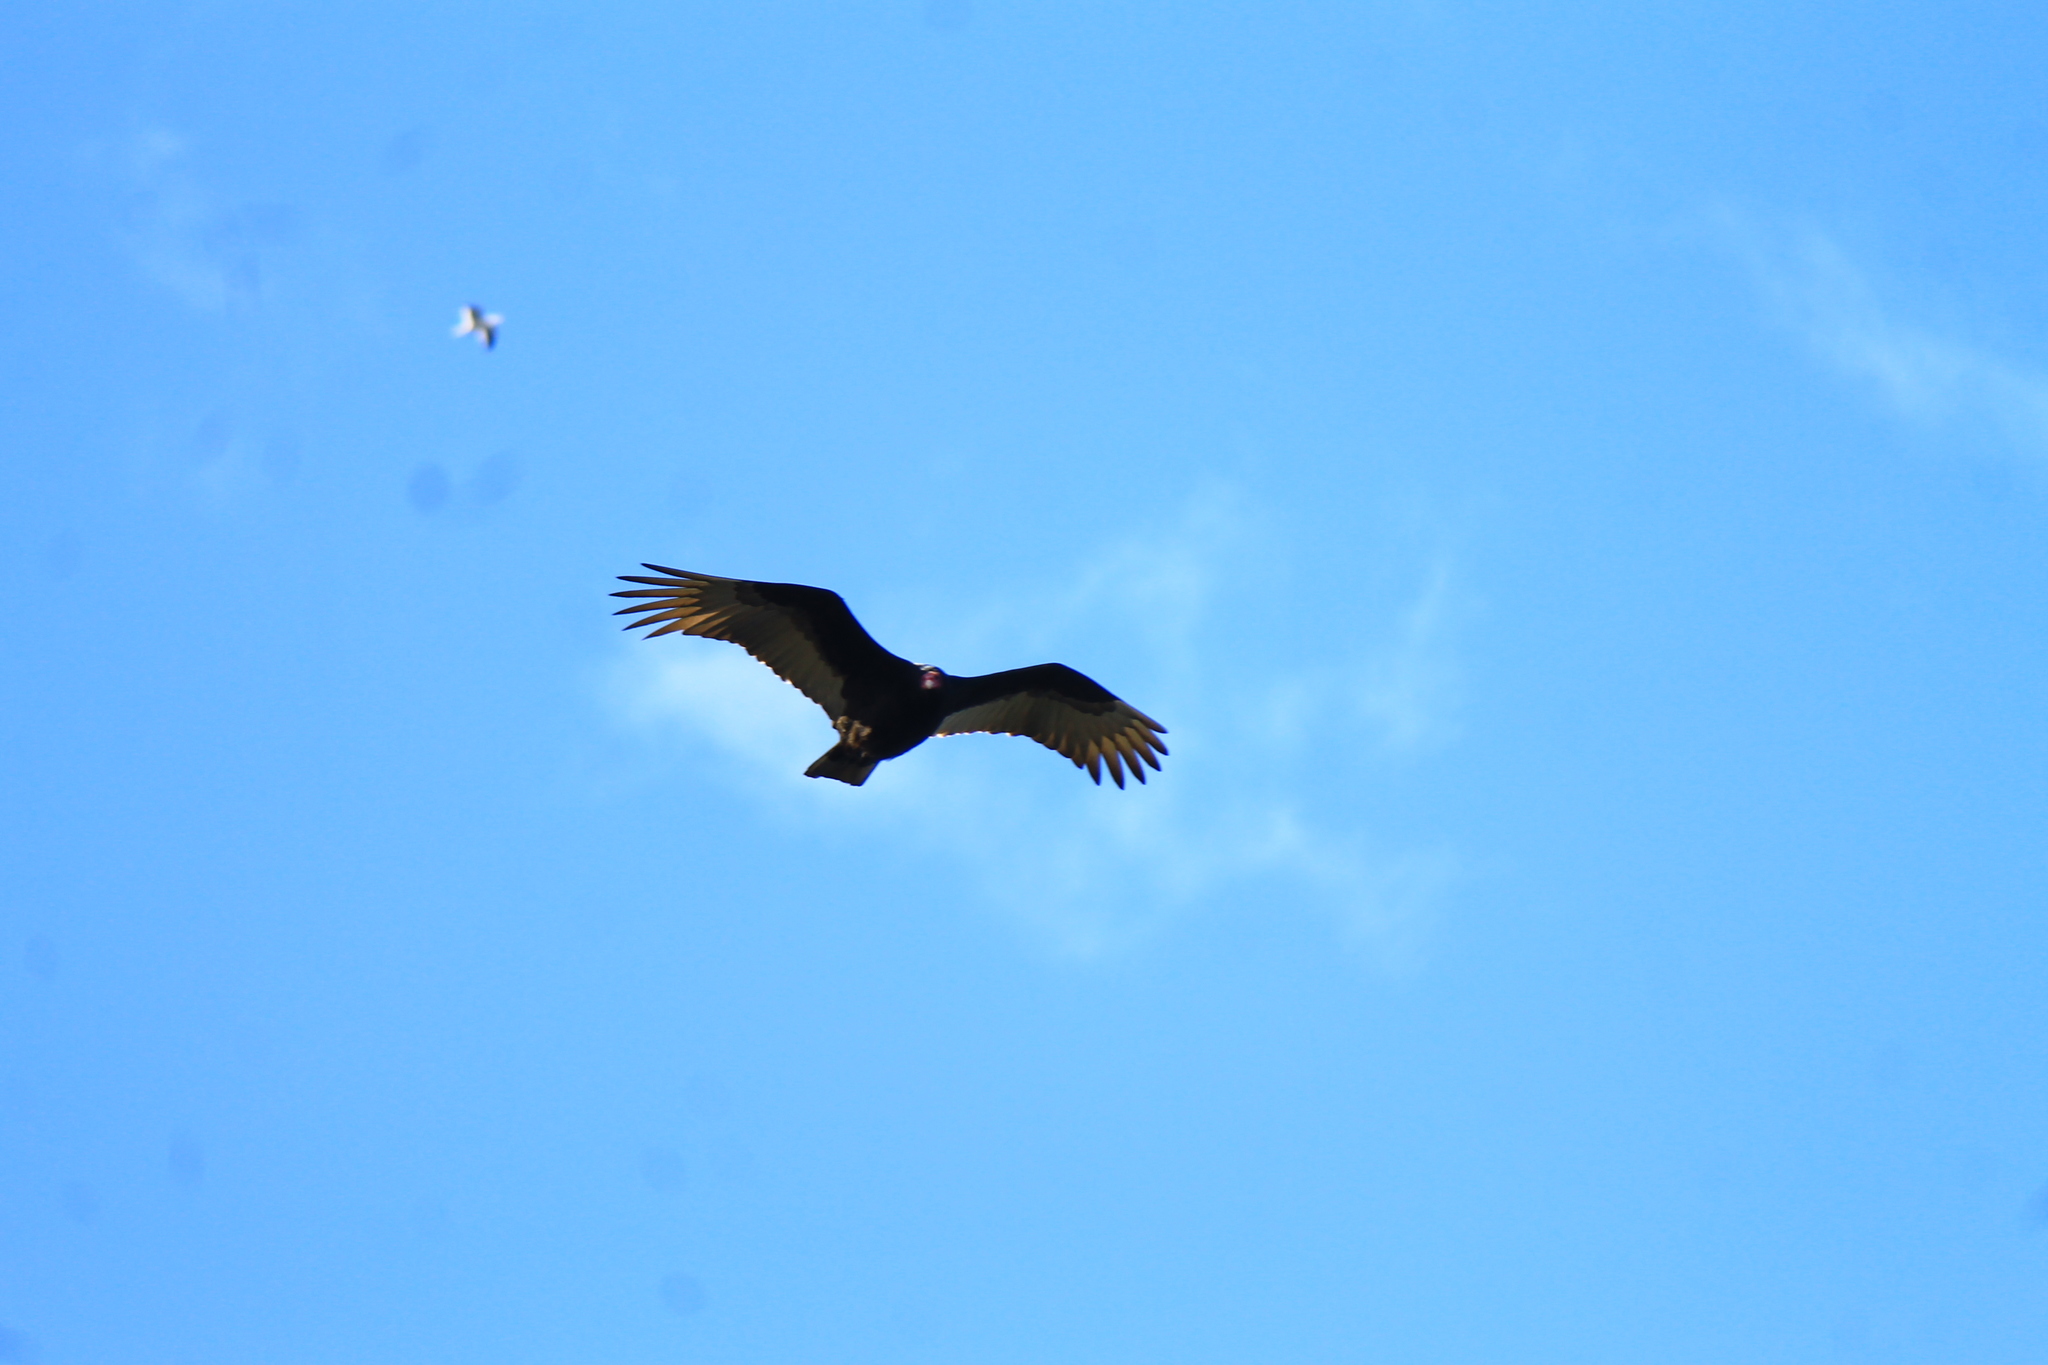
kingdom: Animalia
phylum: Chordata
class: Aves
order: Accipitriformes
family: Cathartidae
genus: Cathartes
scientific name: Cathartes aura
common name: Turkey vulture
